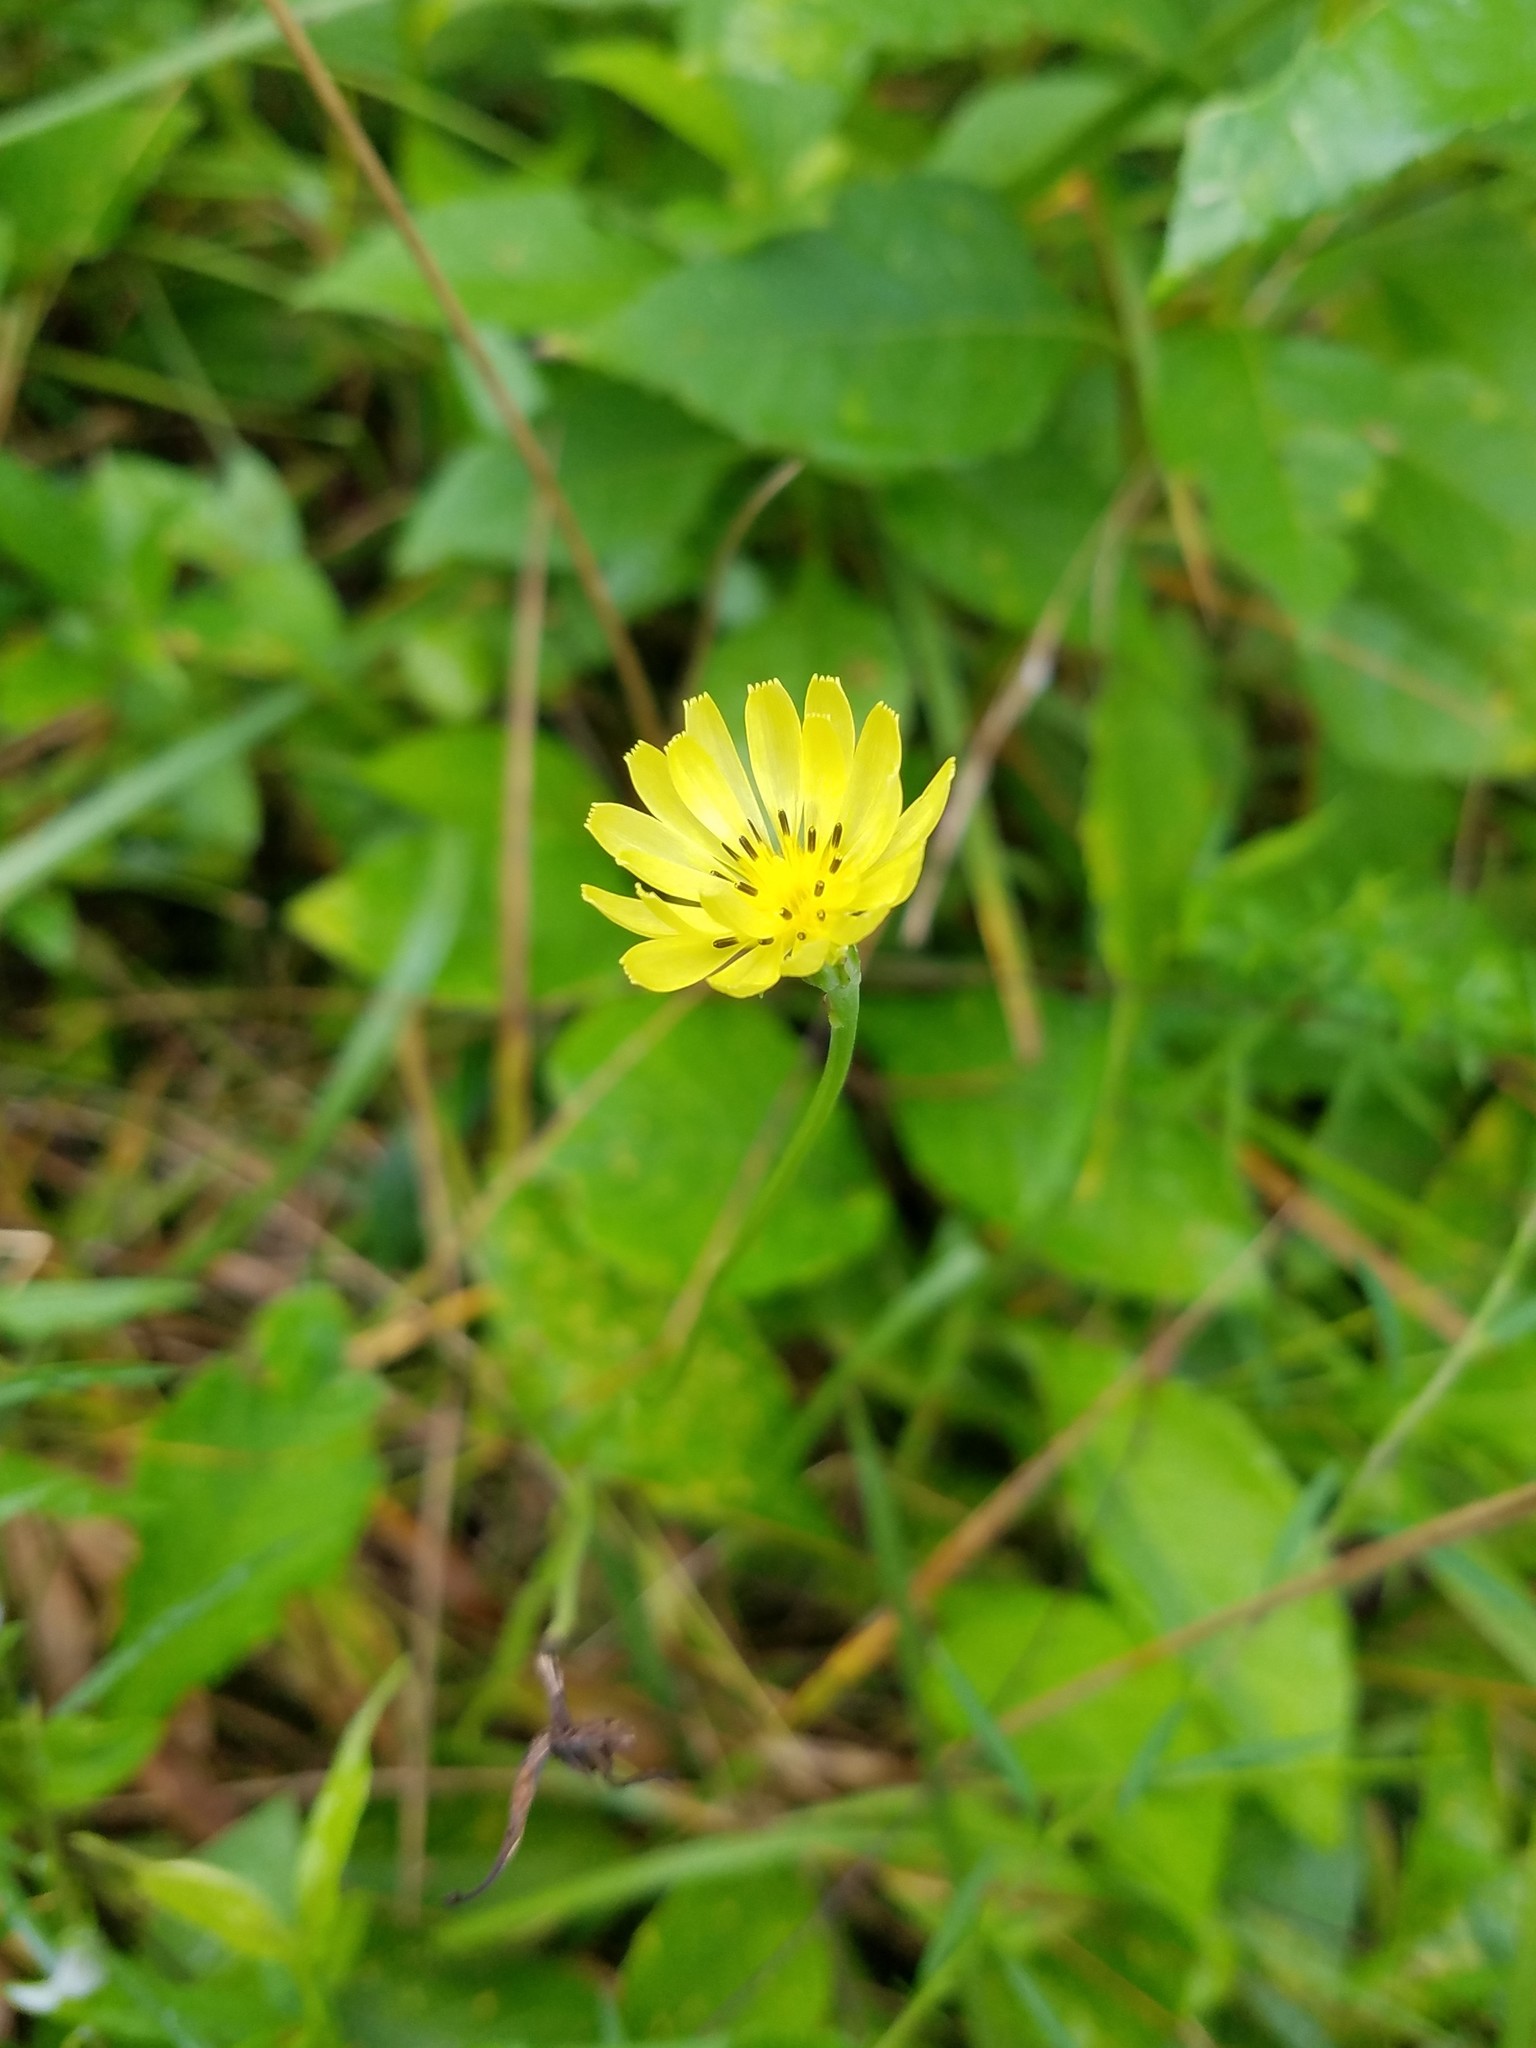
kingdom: Plantae
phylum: Tracheophyta
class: Magnoliopsida
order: Asterales
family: Asteraceae
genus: Pyrrhopappus
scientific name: Pyrrhopappus carolinianus
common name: Carolina desert-chicory
